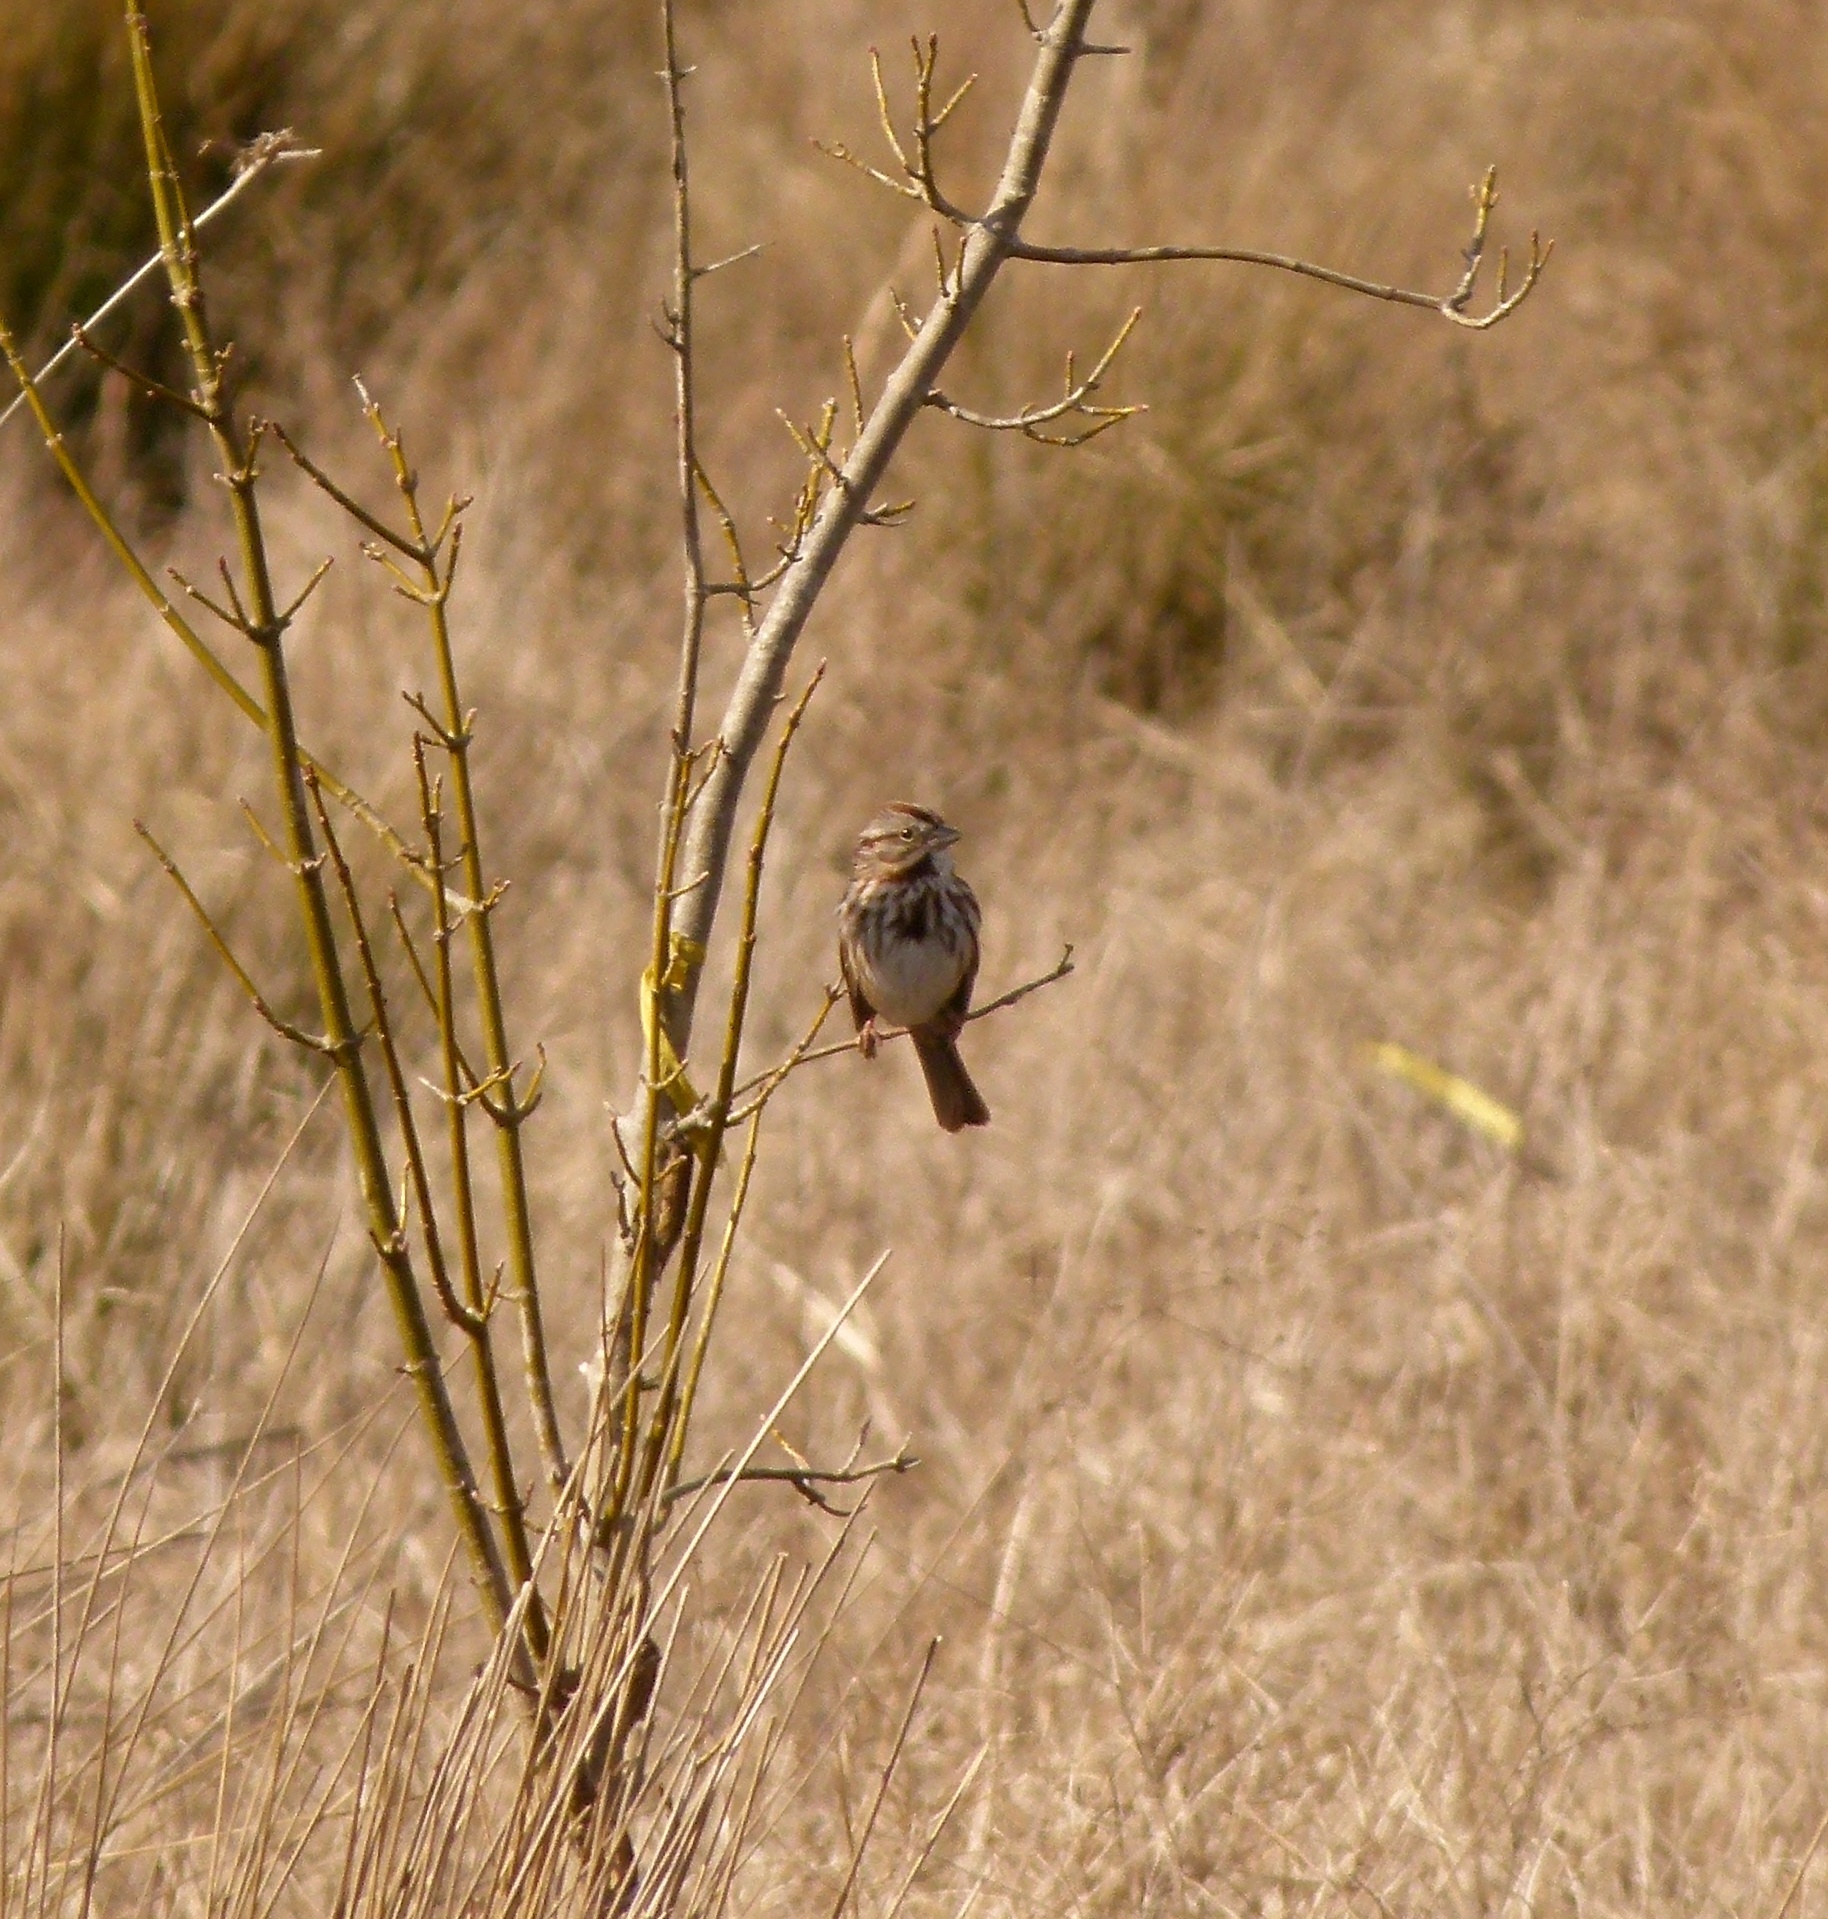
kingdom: Animalia
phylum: Chordata
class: Aves
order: Passeriformes
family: Passerellidae
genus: Melospiza
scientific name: Melospiza melodia
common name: Song sparrow
